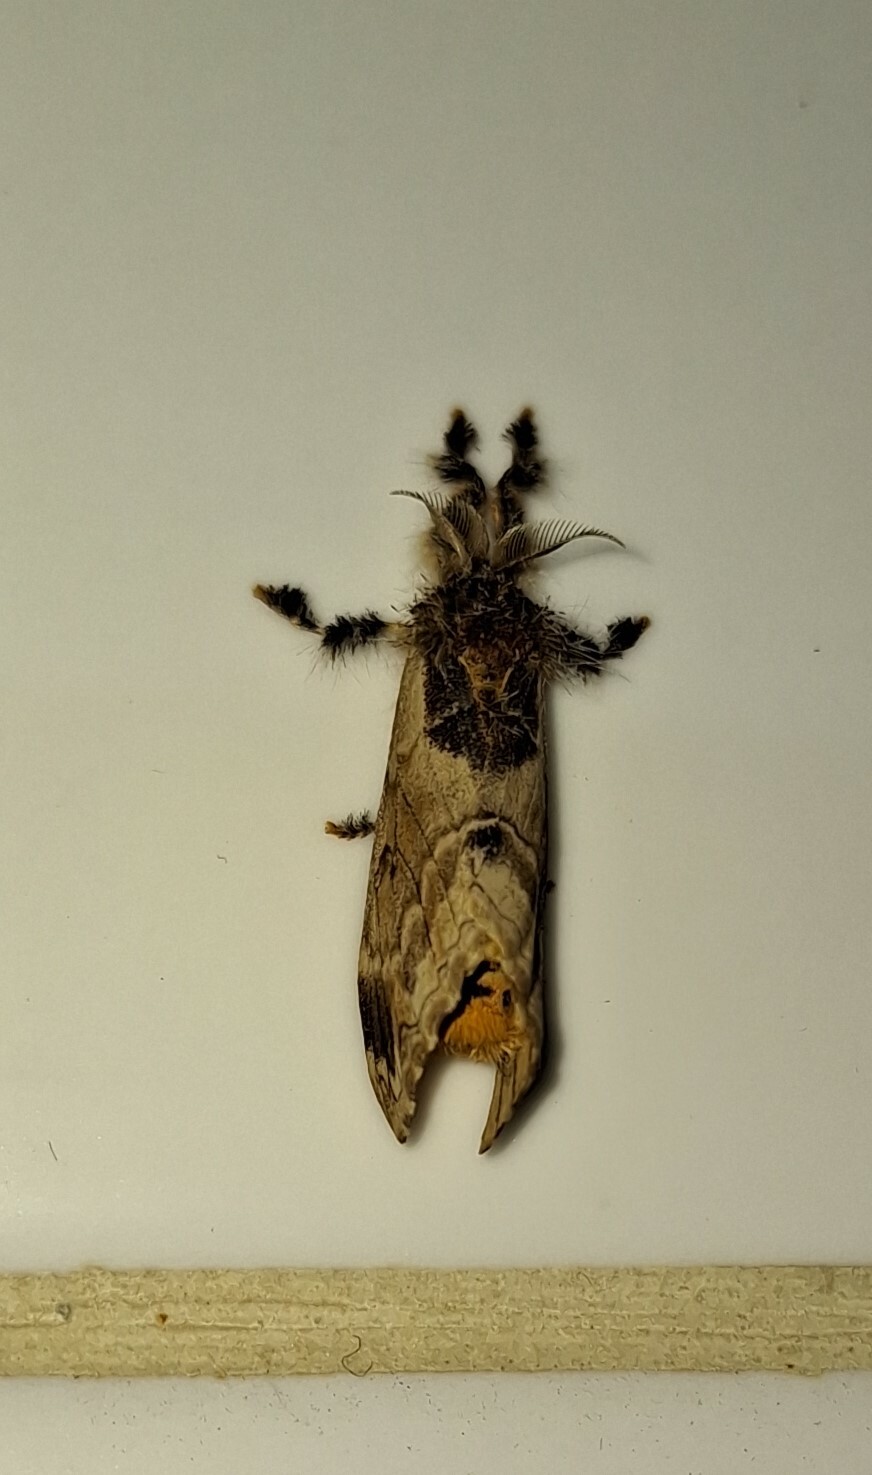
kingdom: Animalia
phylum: Arthropoda
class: Insecta
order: Lepidoptera
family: Erebidae
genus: Hemerophanes
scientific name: Hemerophanes libyra
